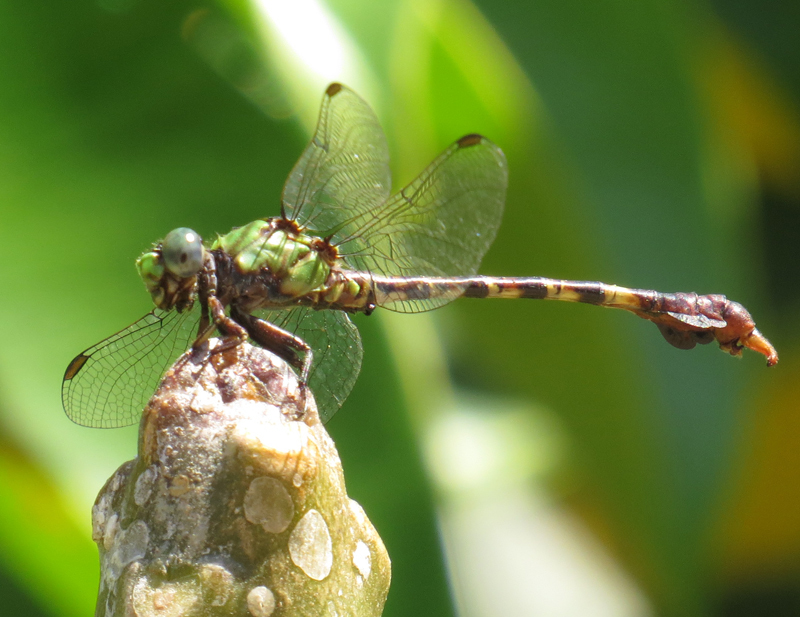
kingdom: Animalia
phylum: Arthropoda
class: Insecta
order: Odonata
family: Gomphidae
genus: Paragomphus
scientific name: Paragomphus nyasicus
